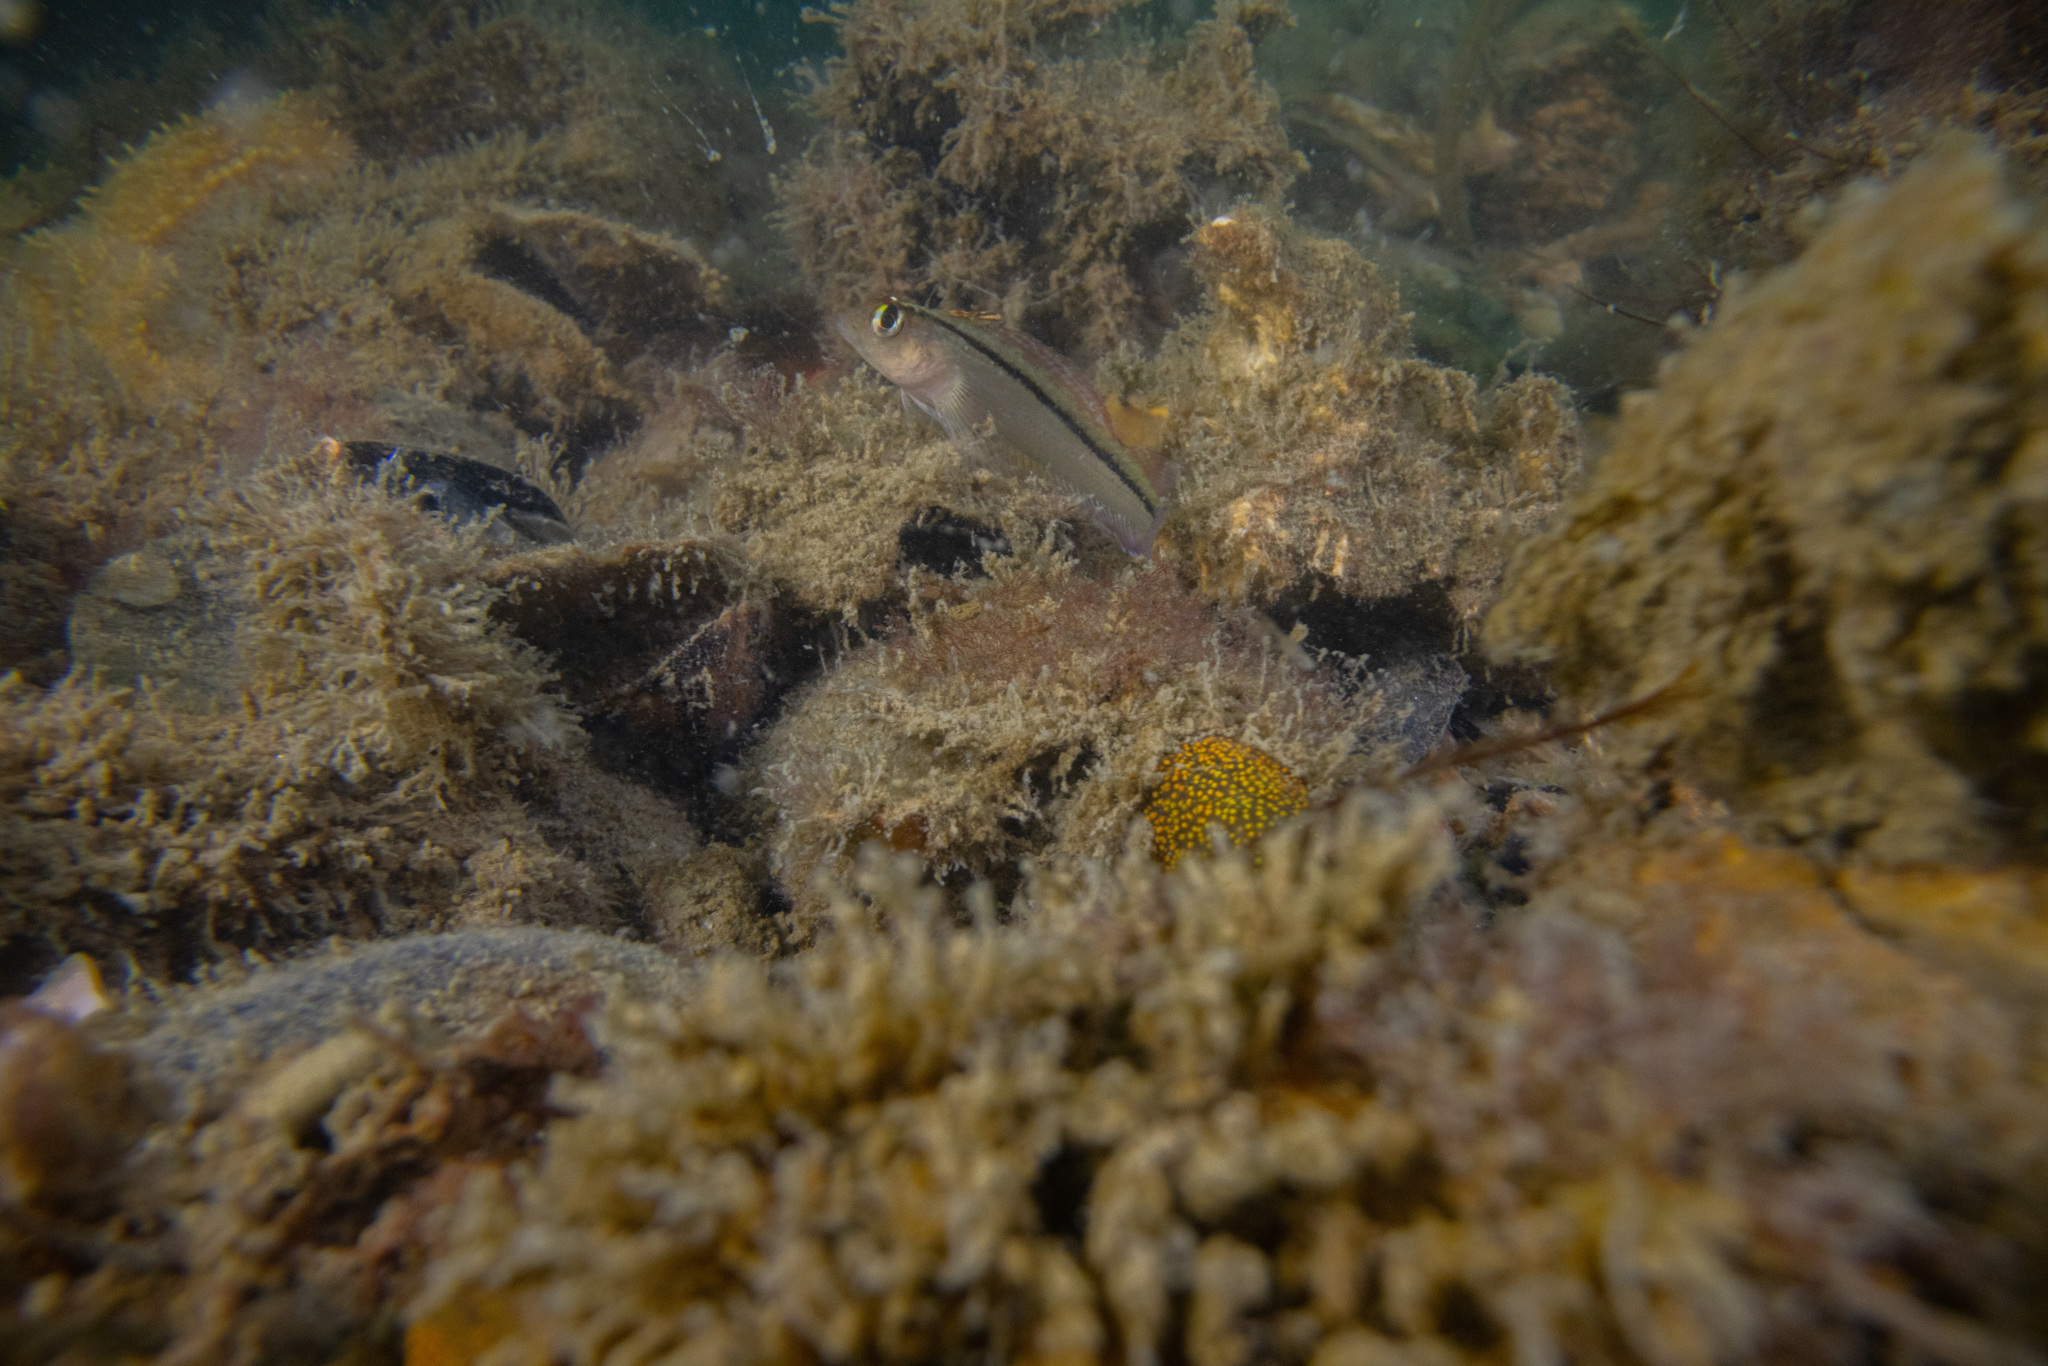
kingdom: Animalia
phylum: Chordata
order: Perciformes
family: Tripterygiidae
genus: Forsterygion
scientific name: Forsterygion lapillum
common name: Common triplefin
